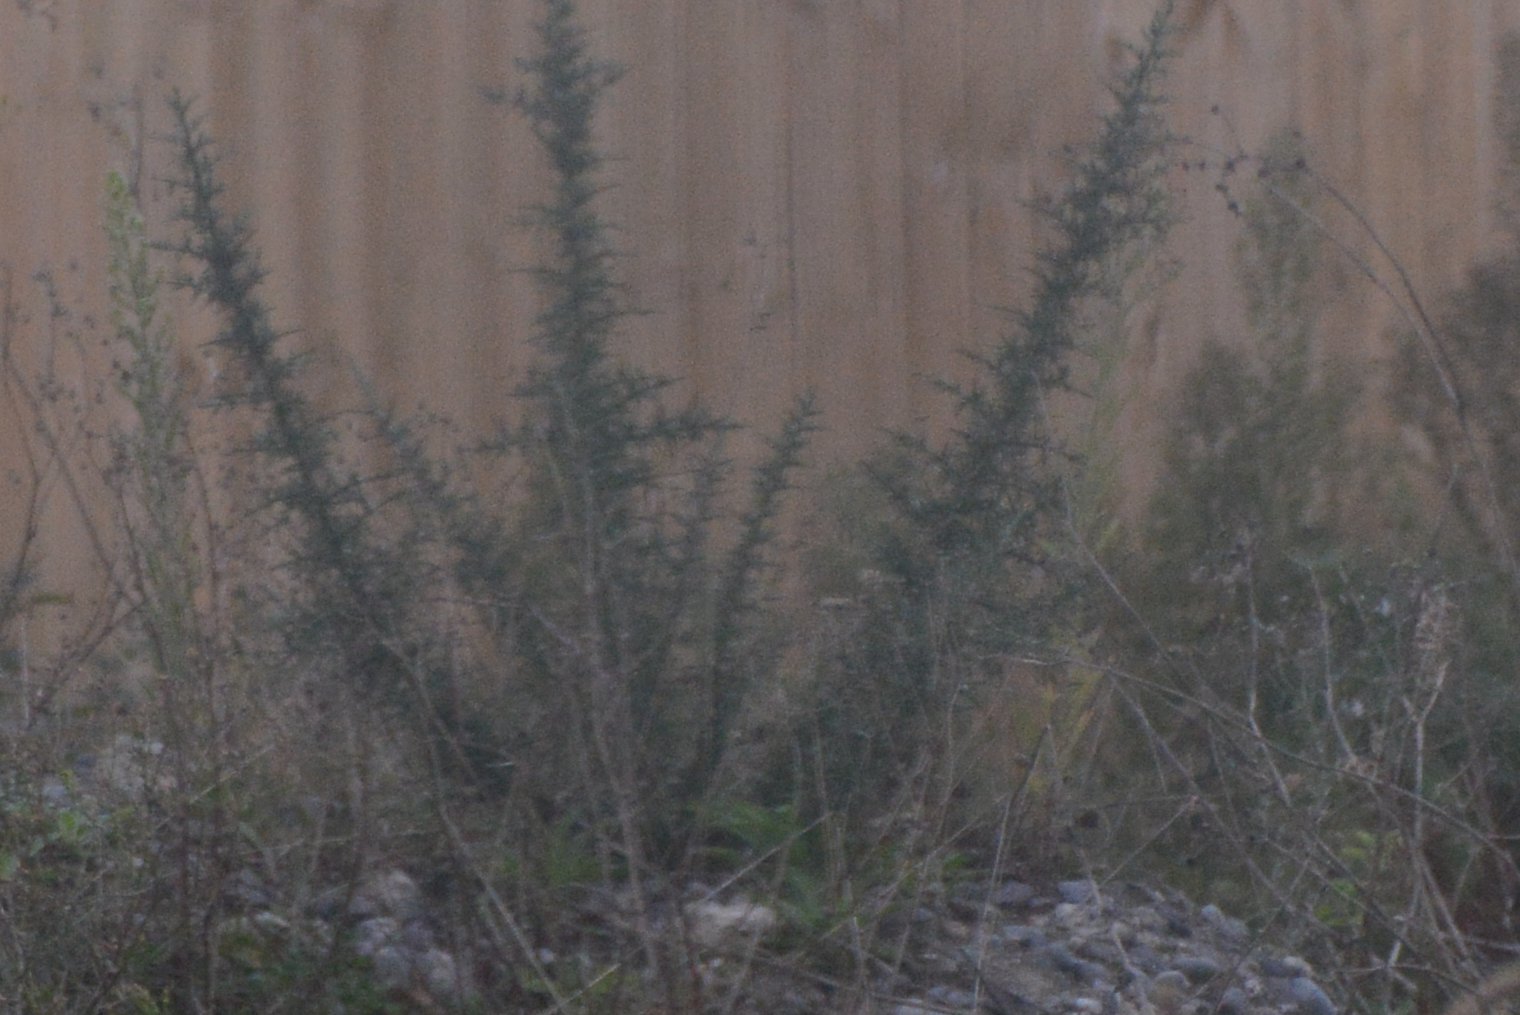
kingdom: Plantae
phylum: Tracheophyta
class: Magnoliopsida
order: Asterales
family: Asteraceae
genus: Senecio
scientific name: Senecio quadridentatus
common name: Cotton fireweed
